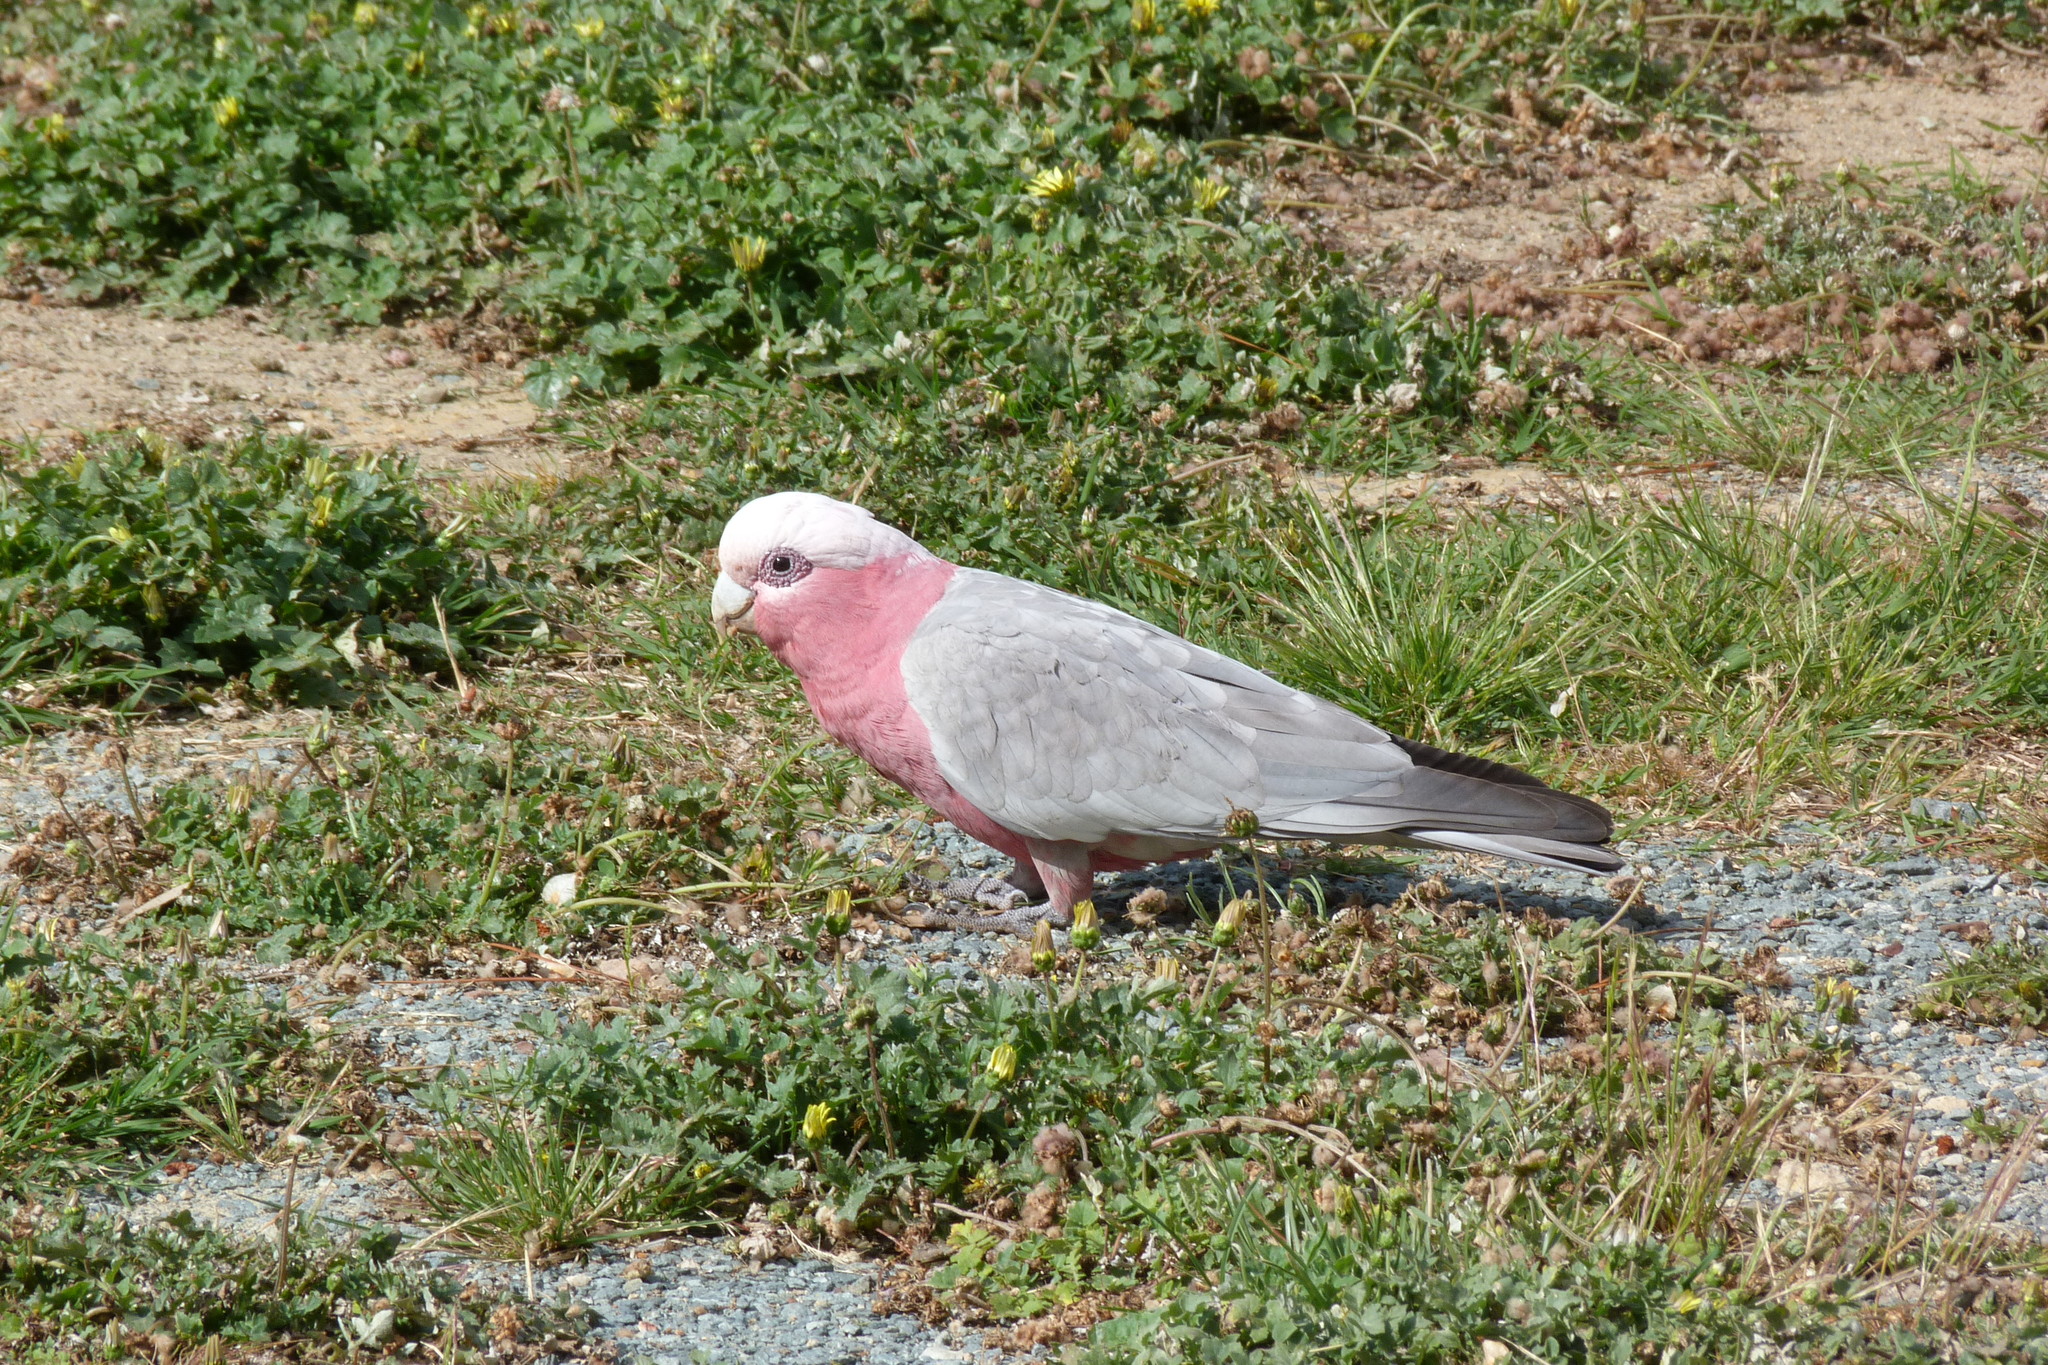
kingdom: Animalia
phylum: Chordata
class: Aves
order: Psittaciformes
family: Psittacidae
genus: Eolophus
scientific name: Eolophus roseicapilla
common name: Galah
